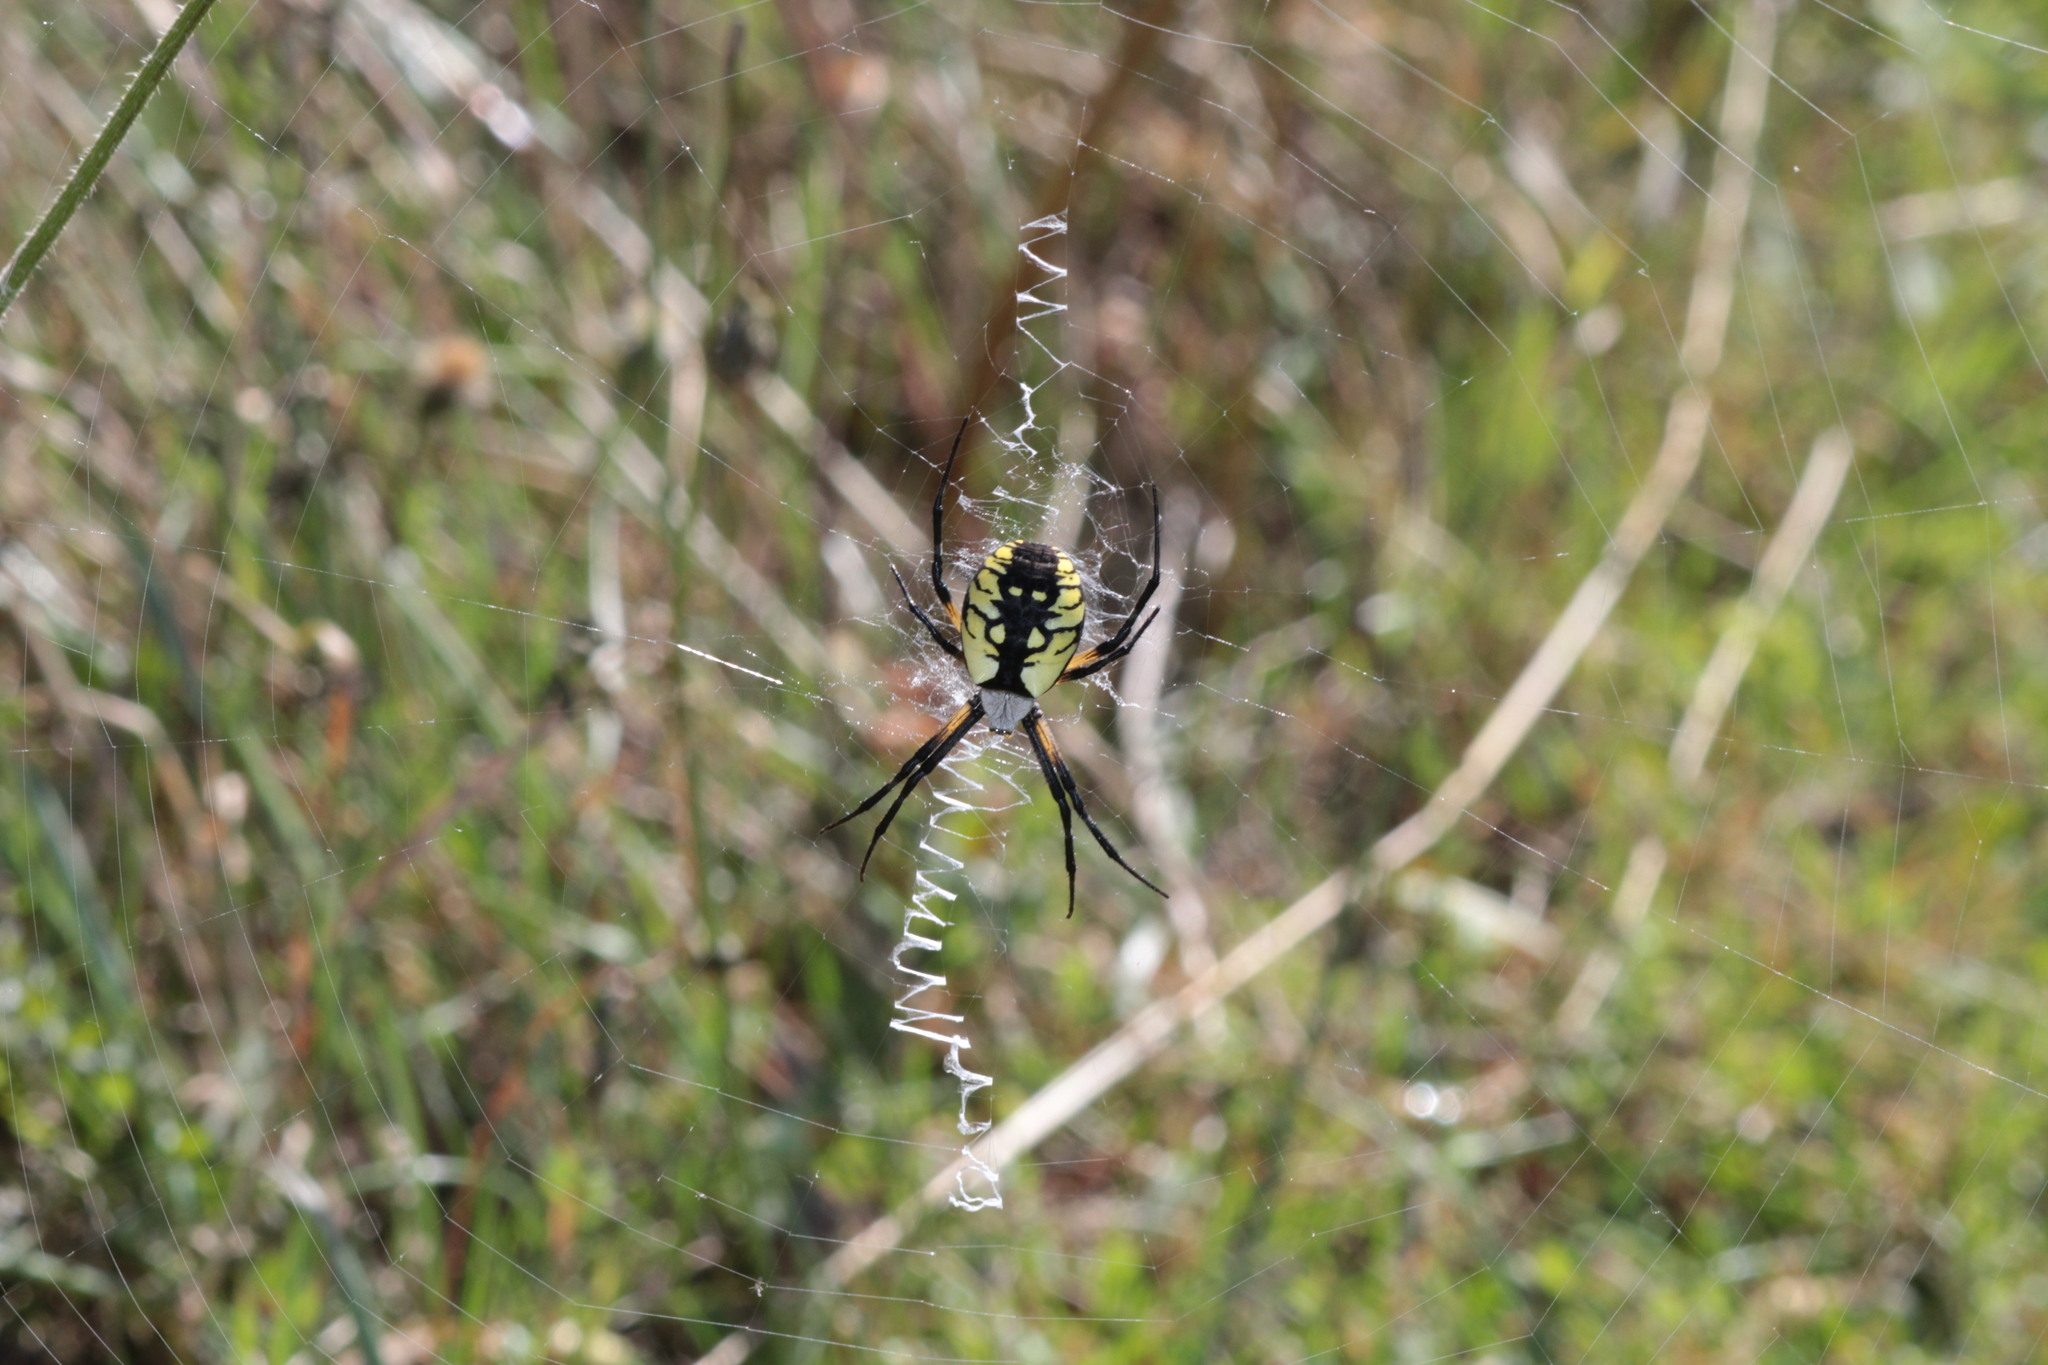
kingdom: Animalia
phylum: Arthropoda
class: Arachnida
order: Araneae
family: Araneidae
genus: Argiope
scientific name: Argiope aurantia
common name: Orb weavers
